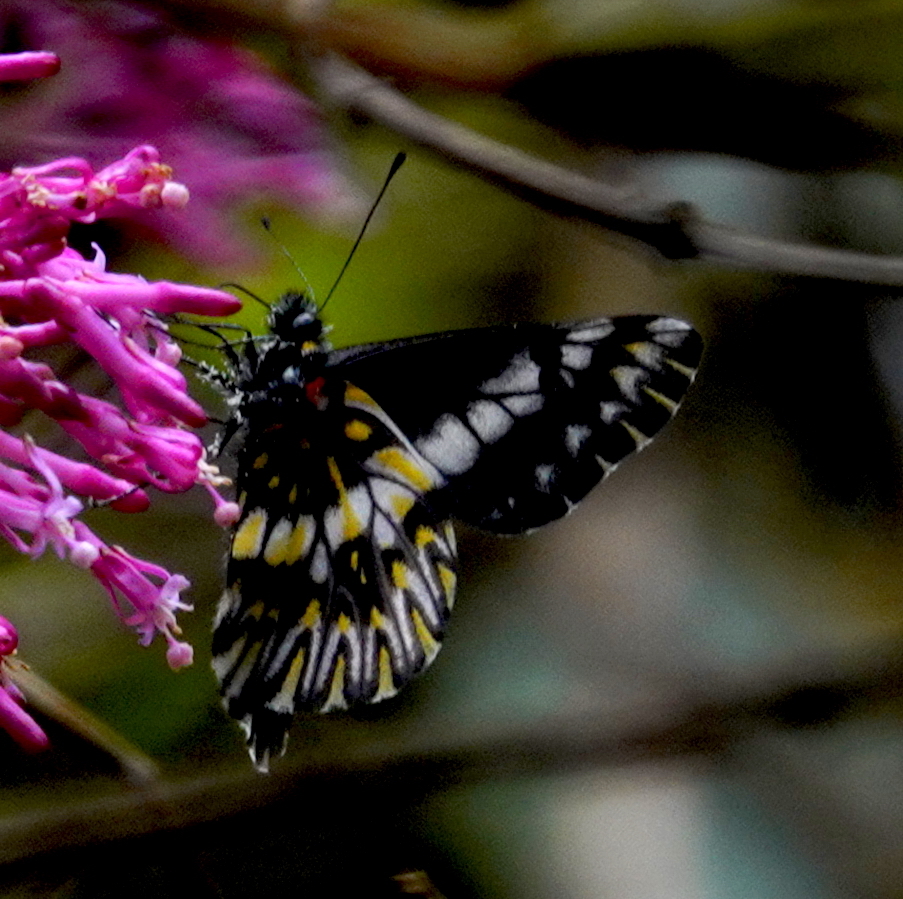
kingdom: Animalia
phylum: Arthropoda
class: Insecta
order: Lepidoptera
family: Pieridae
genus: Archonias
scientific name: Archonias teutila
